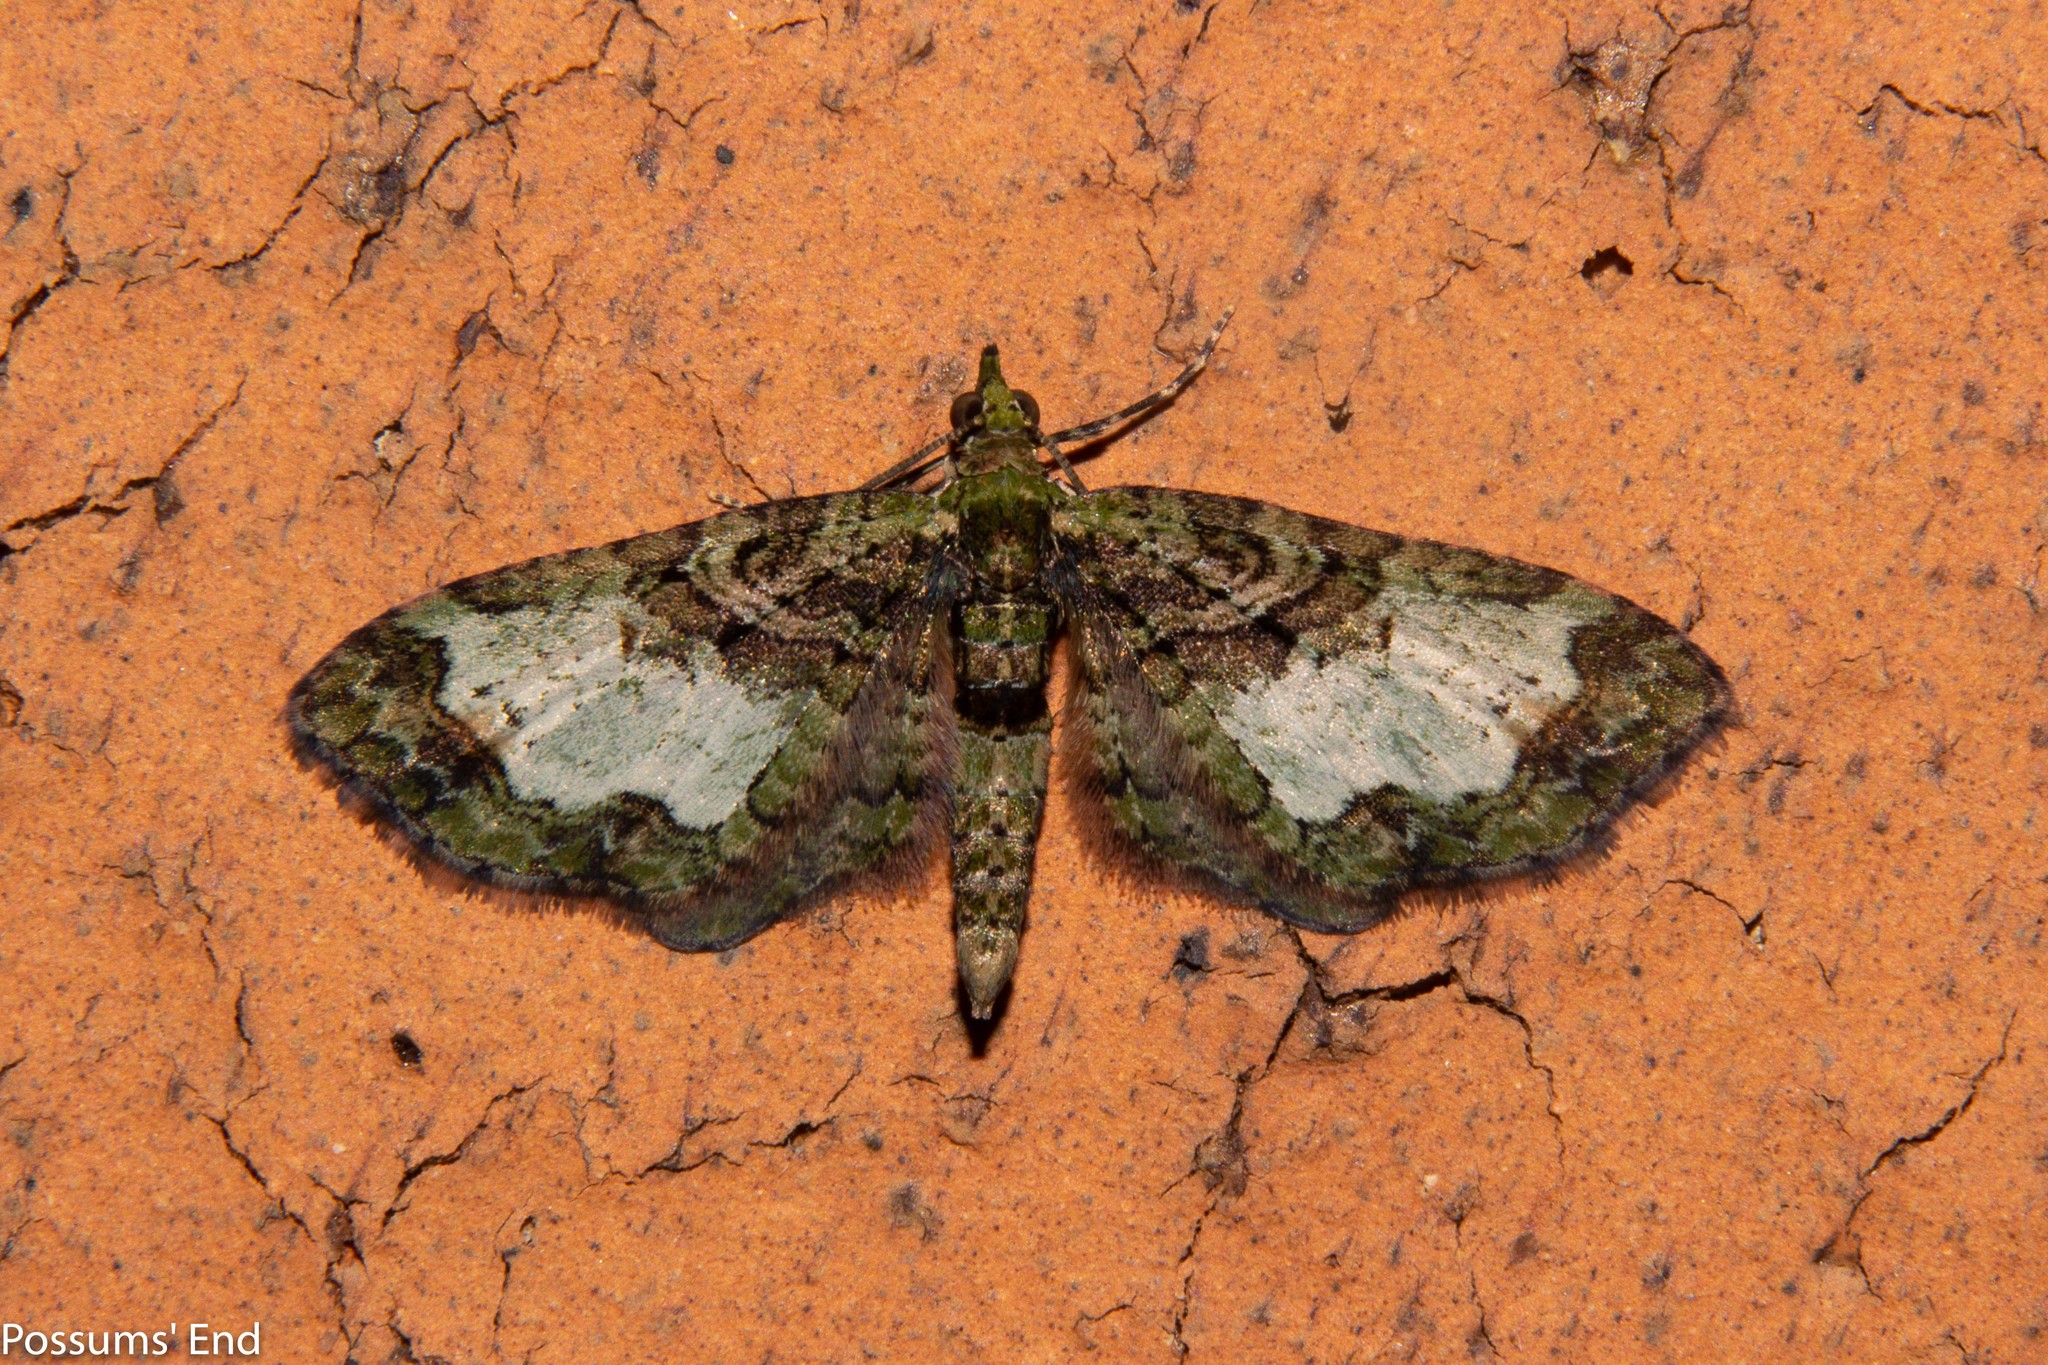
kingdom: Animalia
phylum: Arthropoda
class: Insecta
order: Lepidoptera
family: Geometridae
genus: Idaea
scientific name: Idaea mutanda
